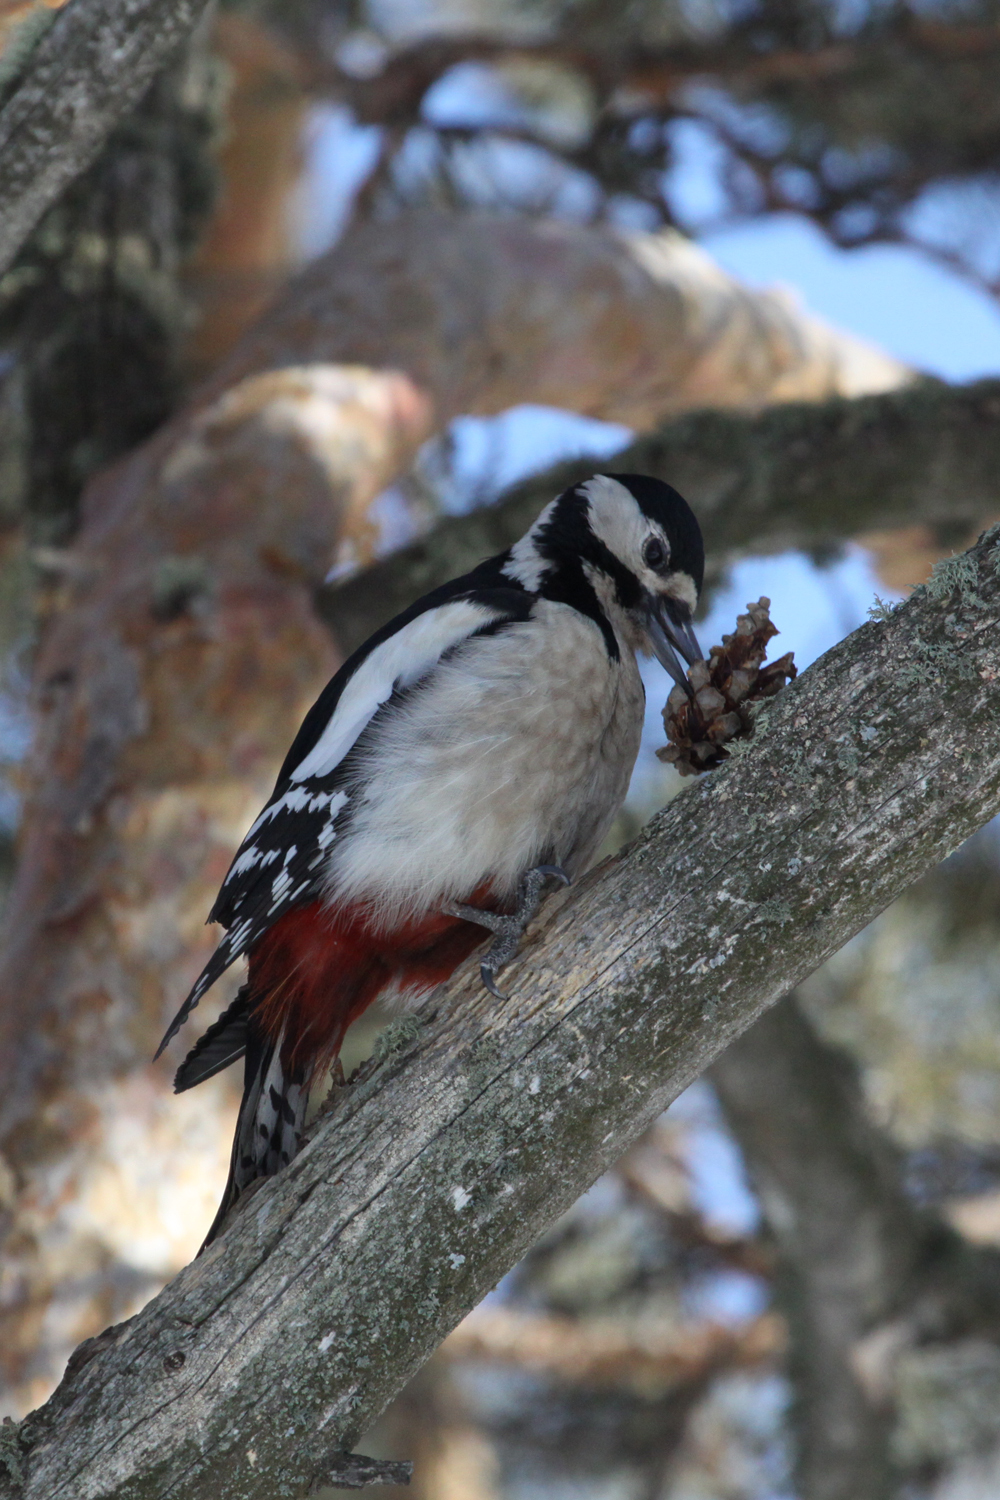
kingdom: Animalia
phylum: Chordata
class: Aves
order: Piciformes
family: Picidae
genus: Dendrocopos
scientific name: Dendrocopos major
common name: Great spotted woodpecker
